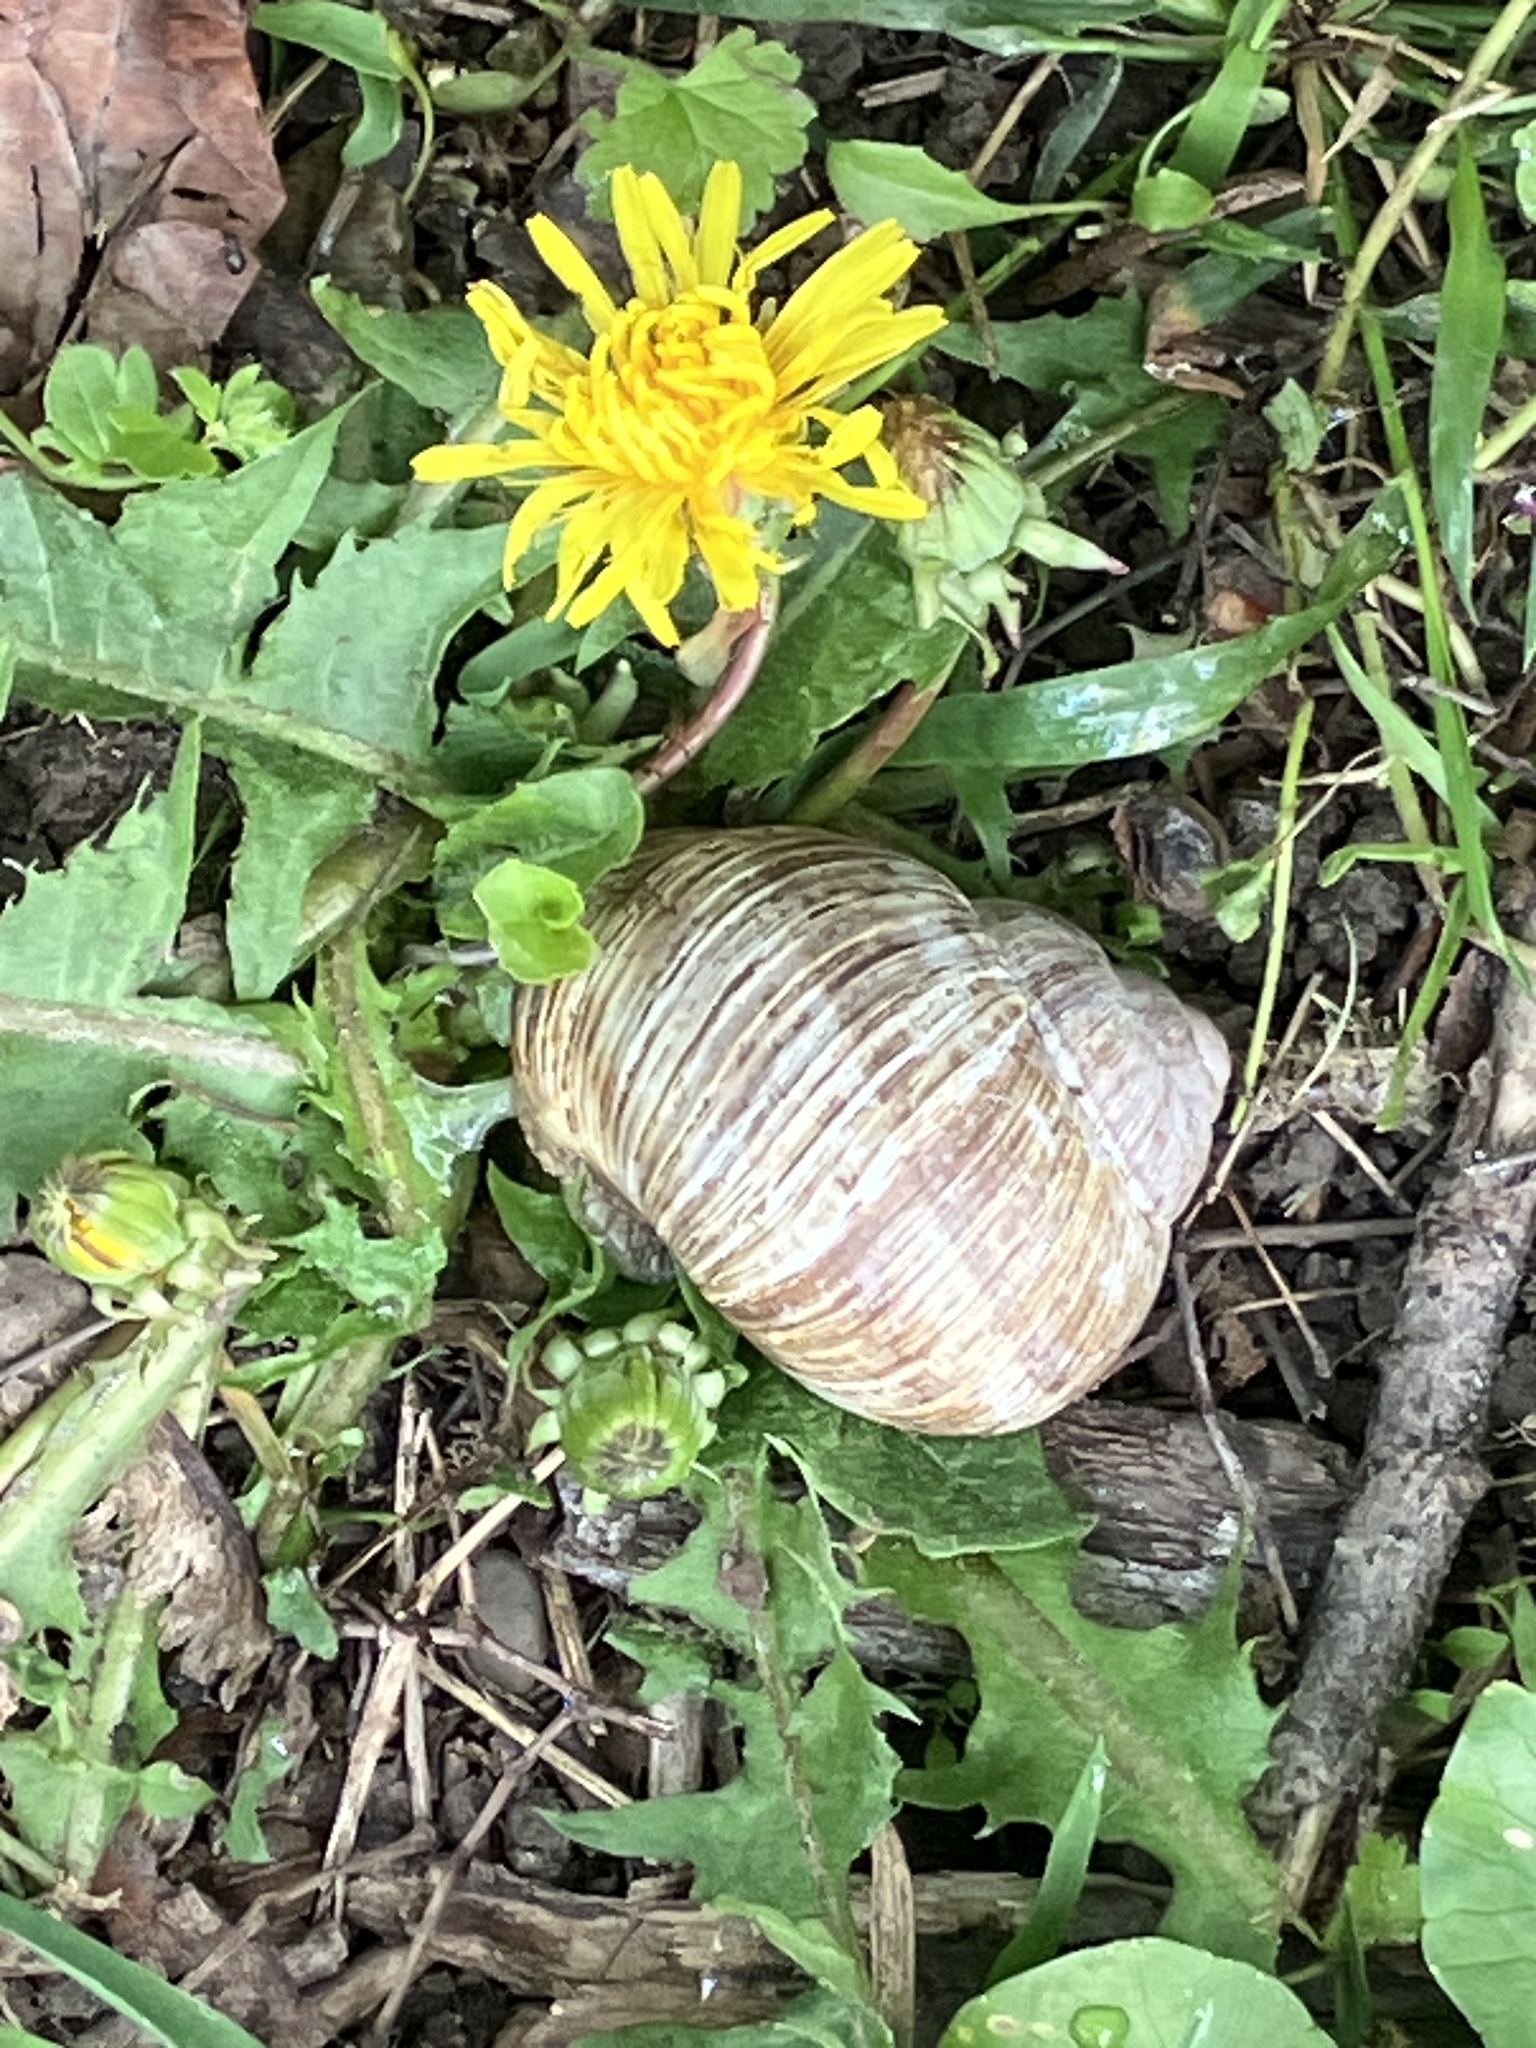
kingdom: Animalia
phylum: Mollusca
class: Gastropoda
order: Stylommatophora
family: Helicidae
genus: Helix
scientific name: Helix pomatia
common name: Roman snail
